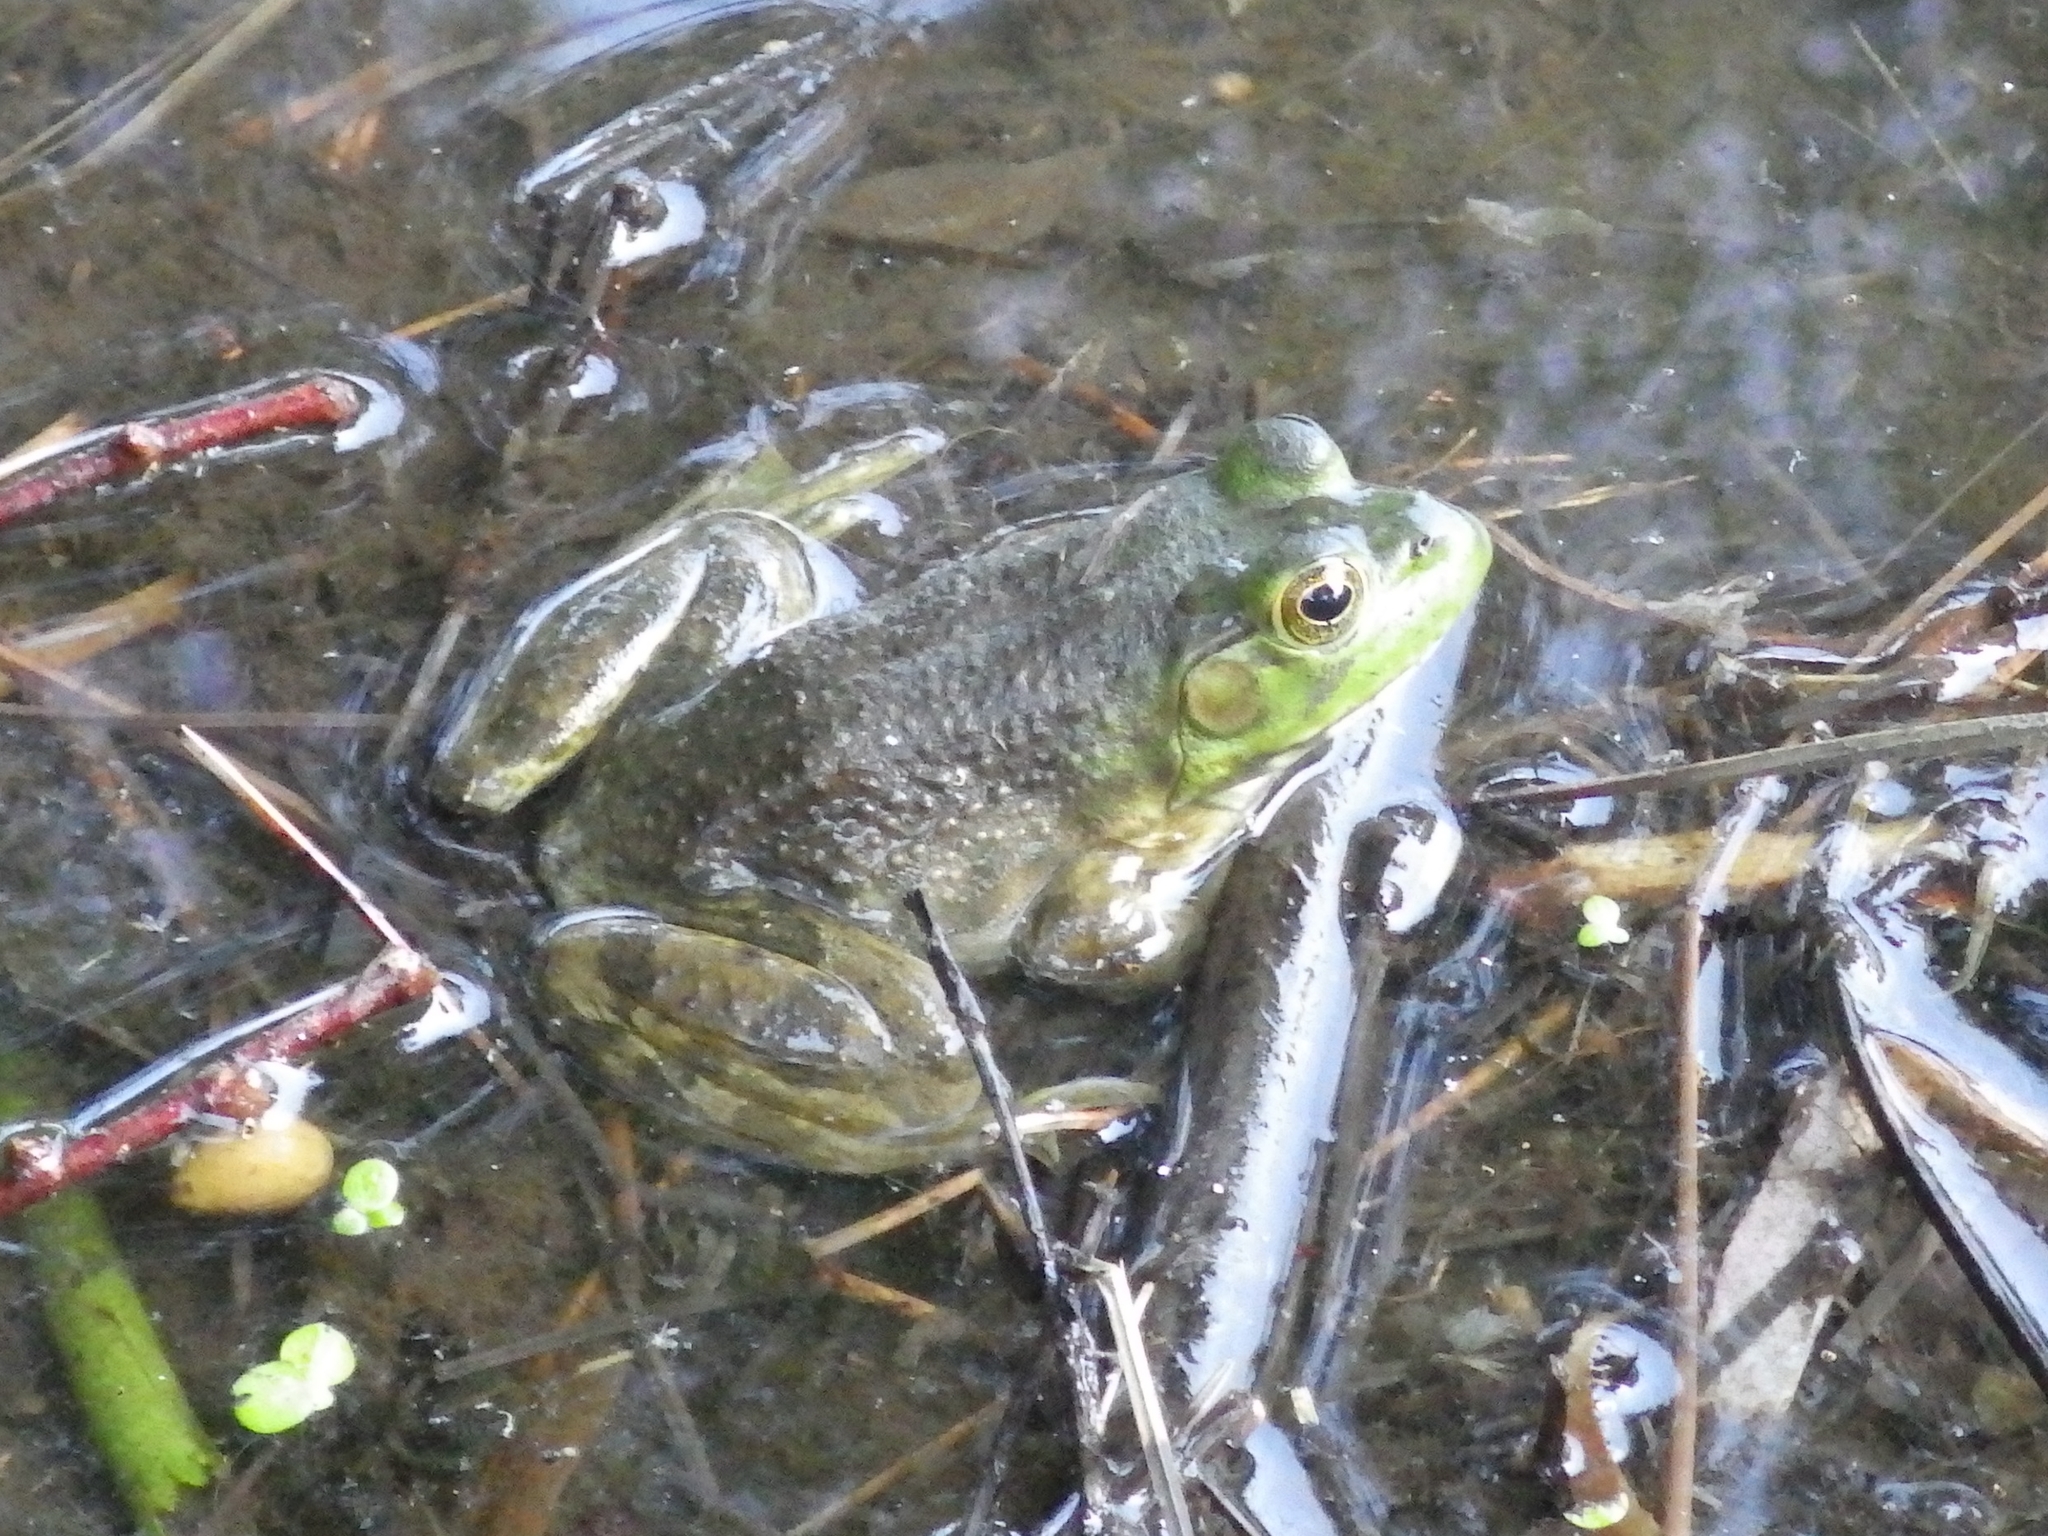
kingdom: Animalia
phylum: Chordata
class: Amphibia
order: Anura
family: Ranidae
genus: Lithobates
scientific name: Lithobates catesbeianus
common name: American bullfrog
